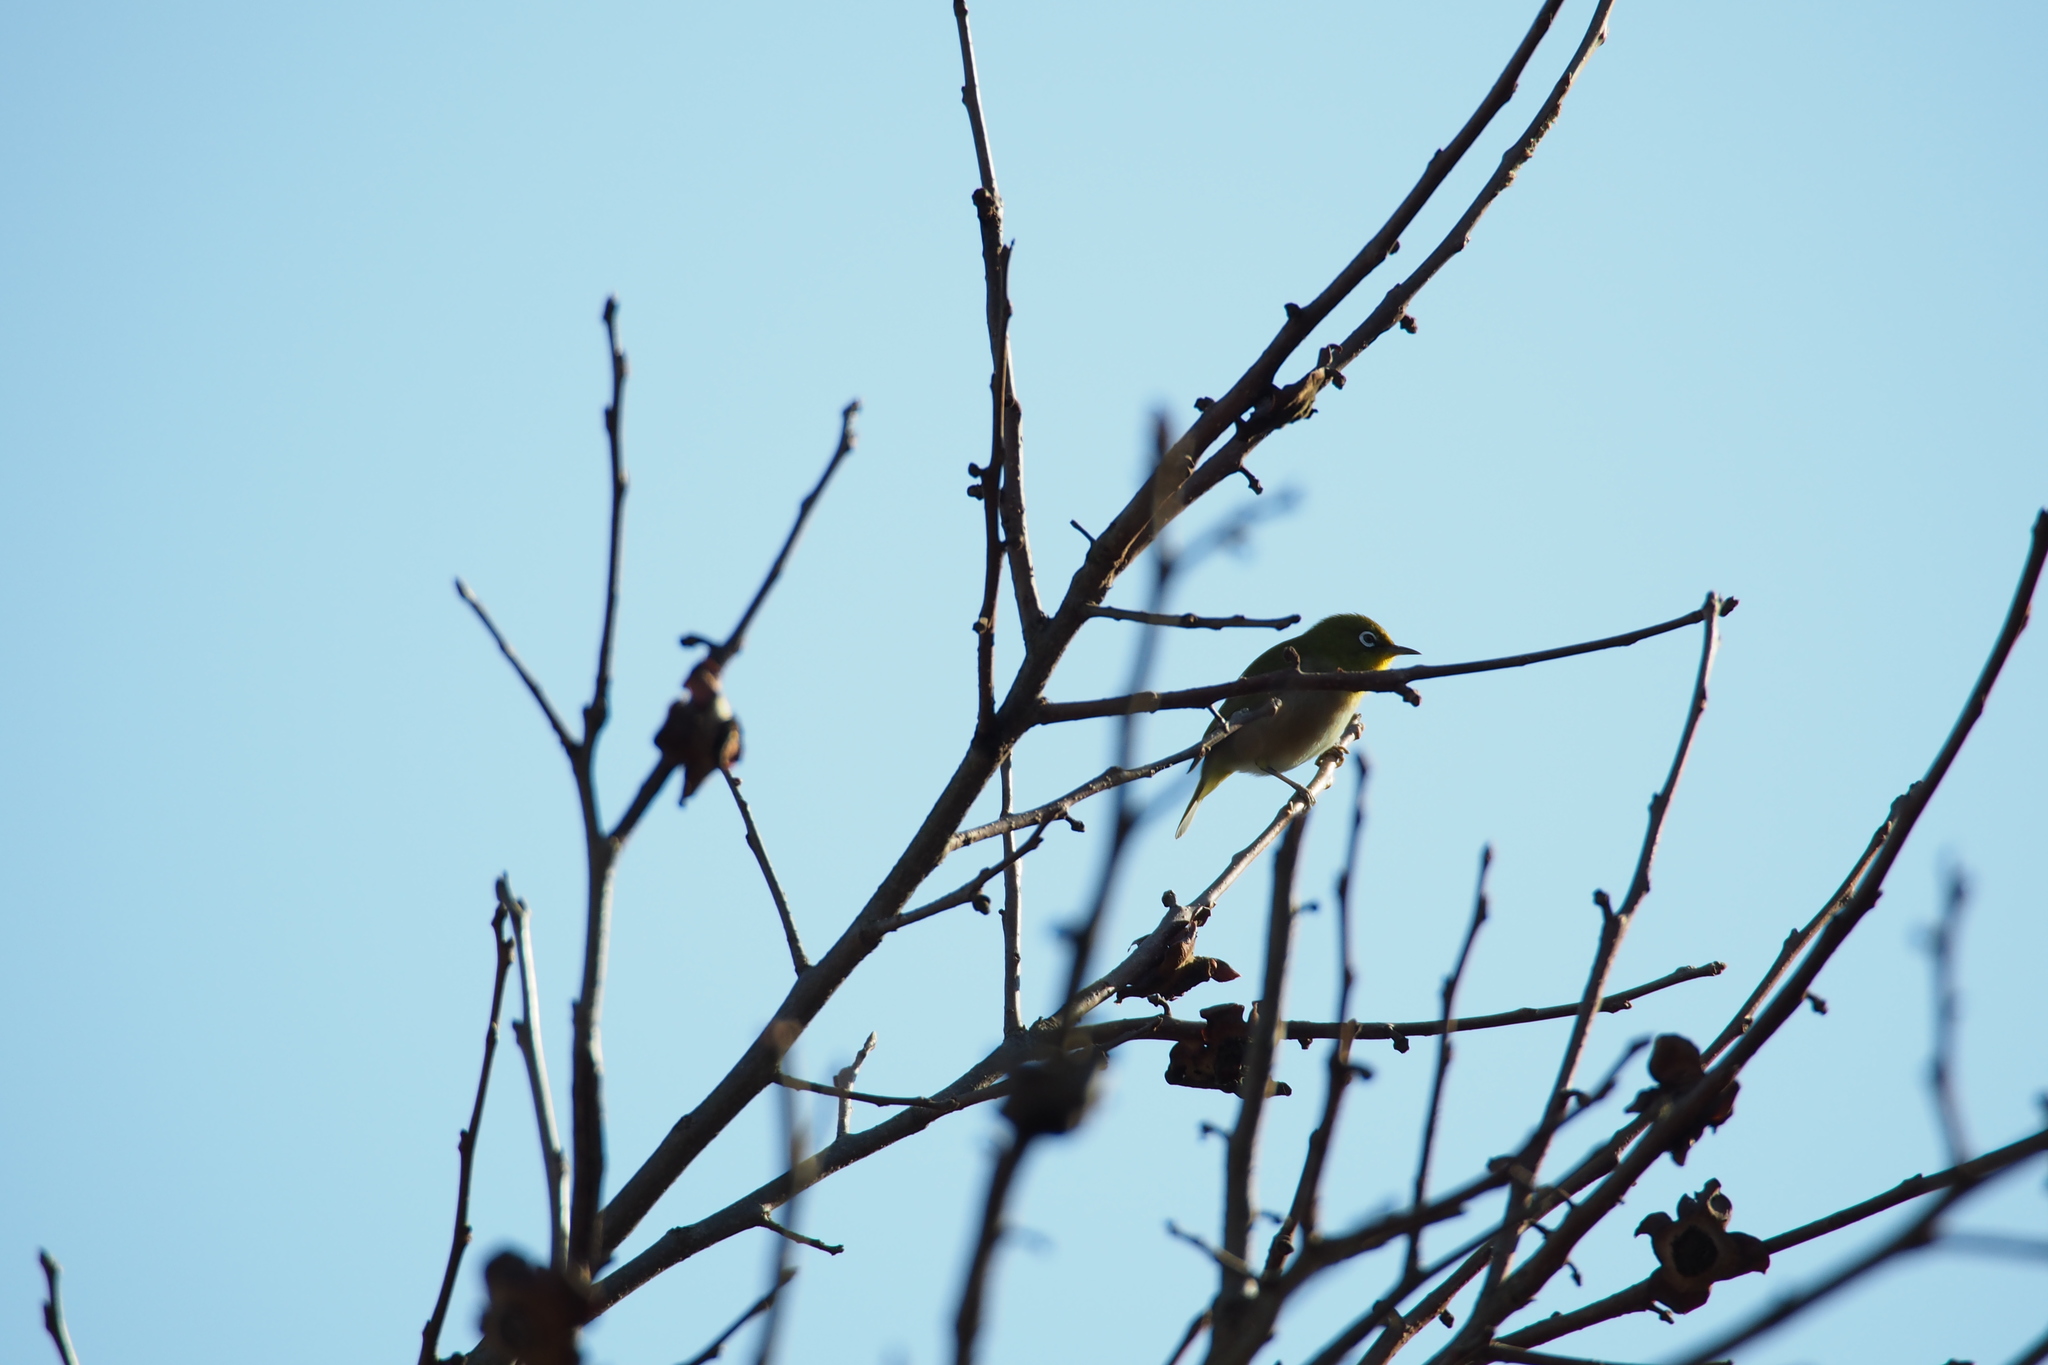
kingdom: Animalia
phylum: Chordata
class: Aves
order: Passeriformes
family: Zosteropidae
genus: Zosterops
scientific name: Zosterops japonicus
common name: Japanese white-eye
